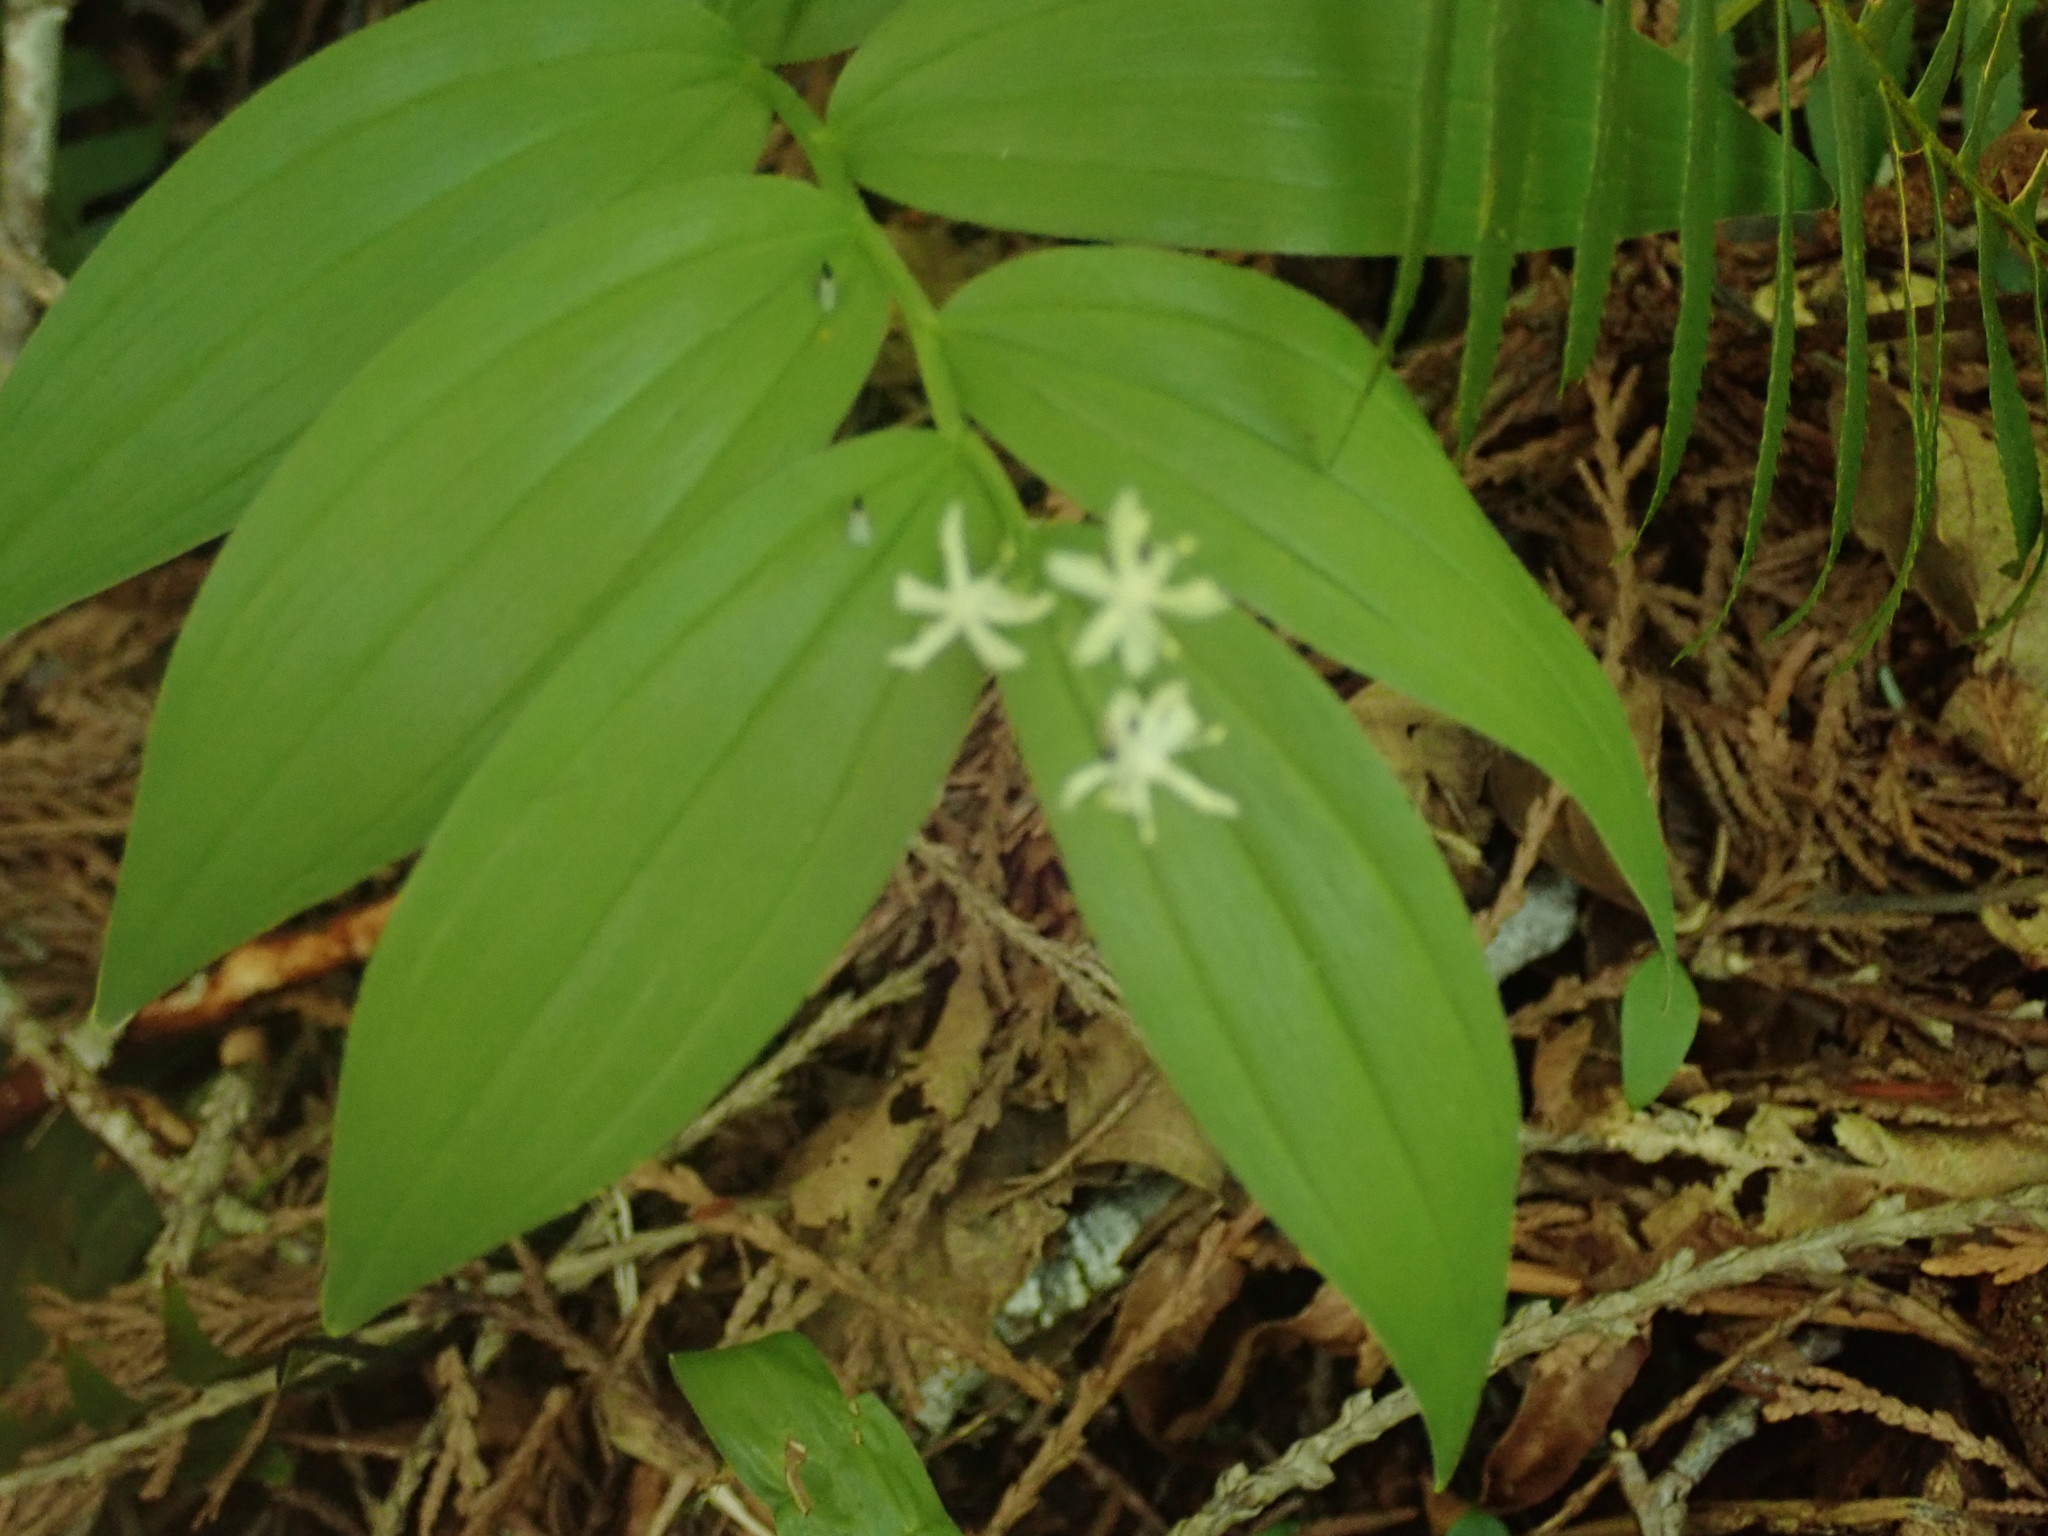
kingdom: Plantae
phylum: Tracheophyta
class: Liliopsida
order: Asparagales
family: Asparagaceae
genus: Maianthemum
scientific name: Maianthemum stellatum
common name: Little false solomon's seal
